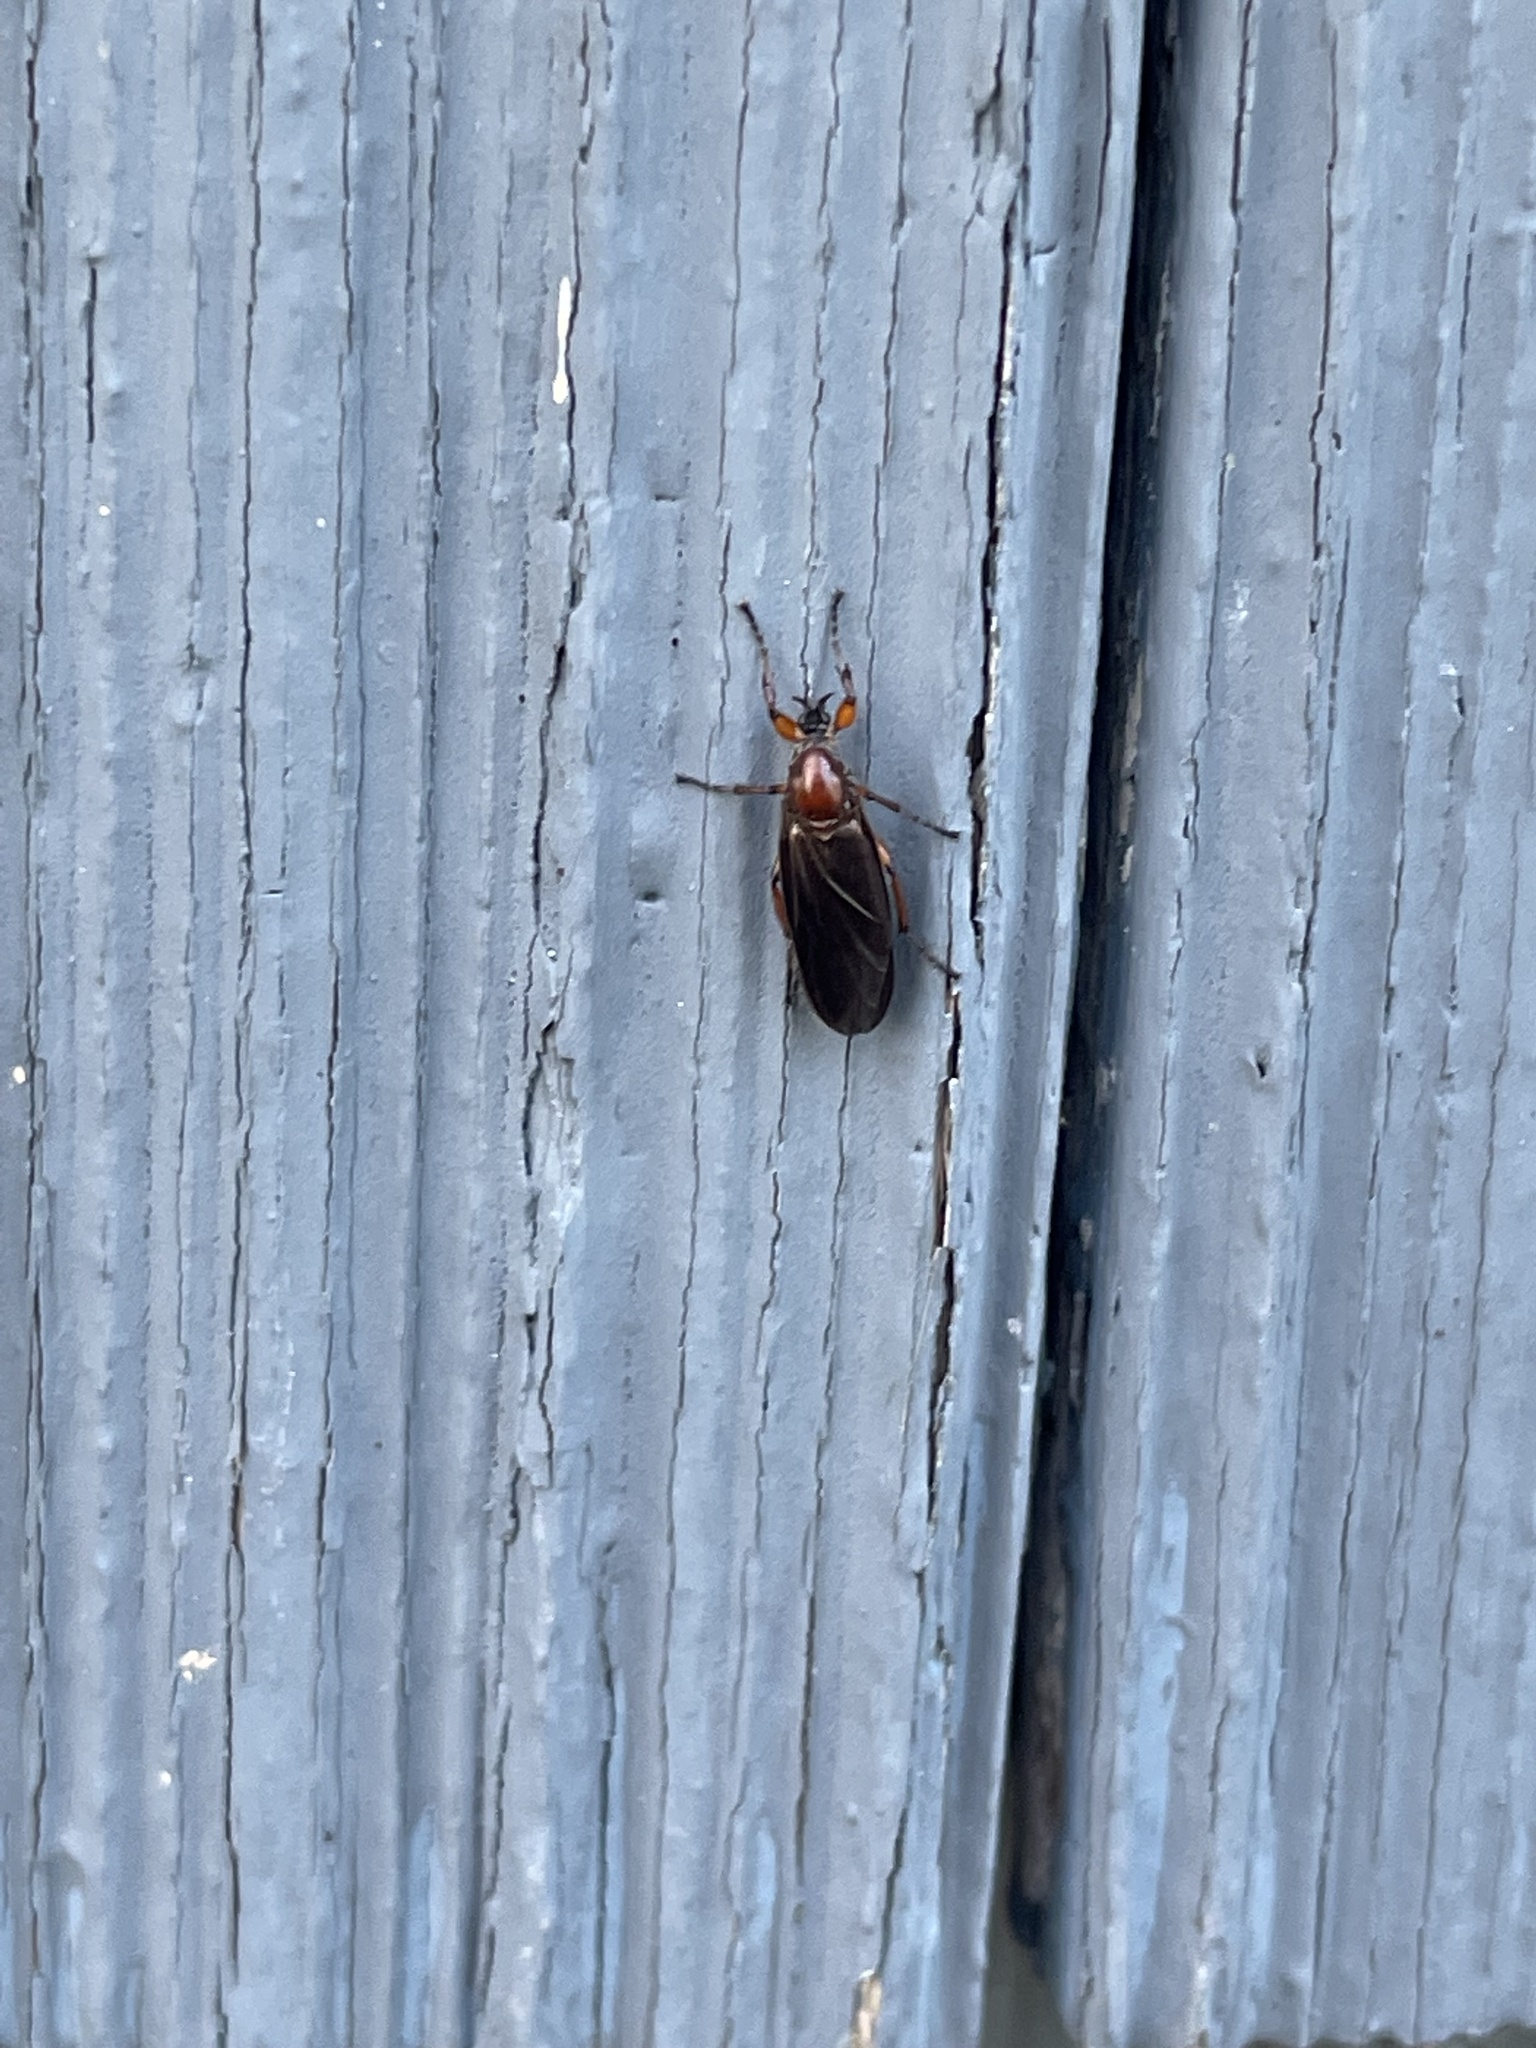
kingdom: Animalia
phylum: Arthropoda
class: Insecta
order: Diptera
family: Bibionidae
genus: Bibio
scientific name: Bibio articulatus
